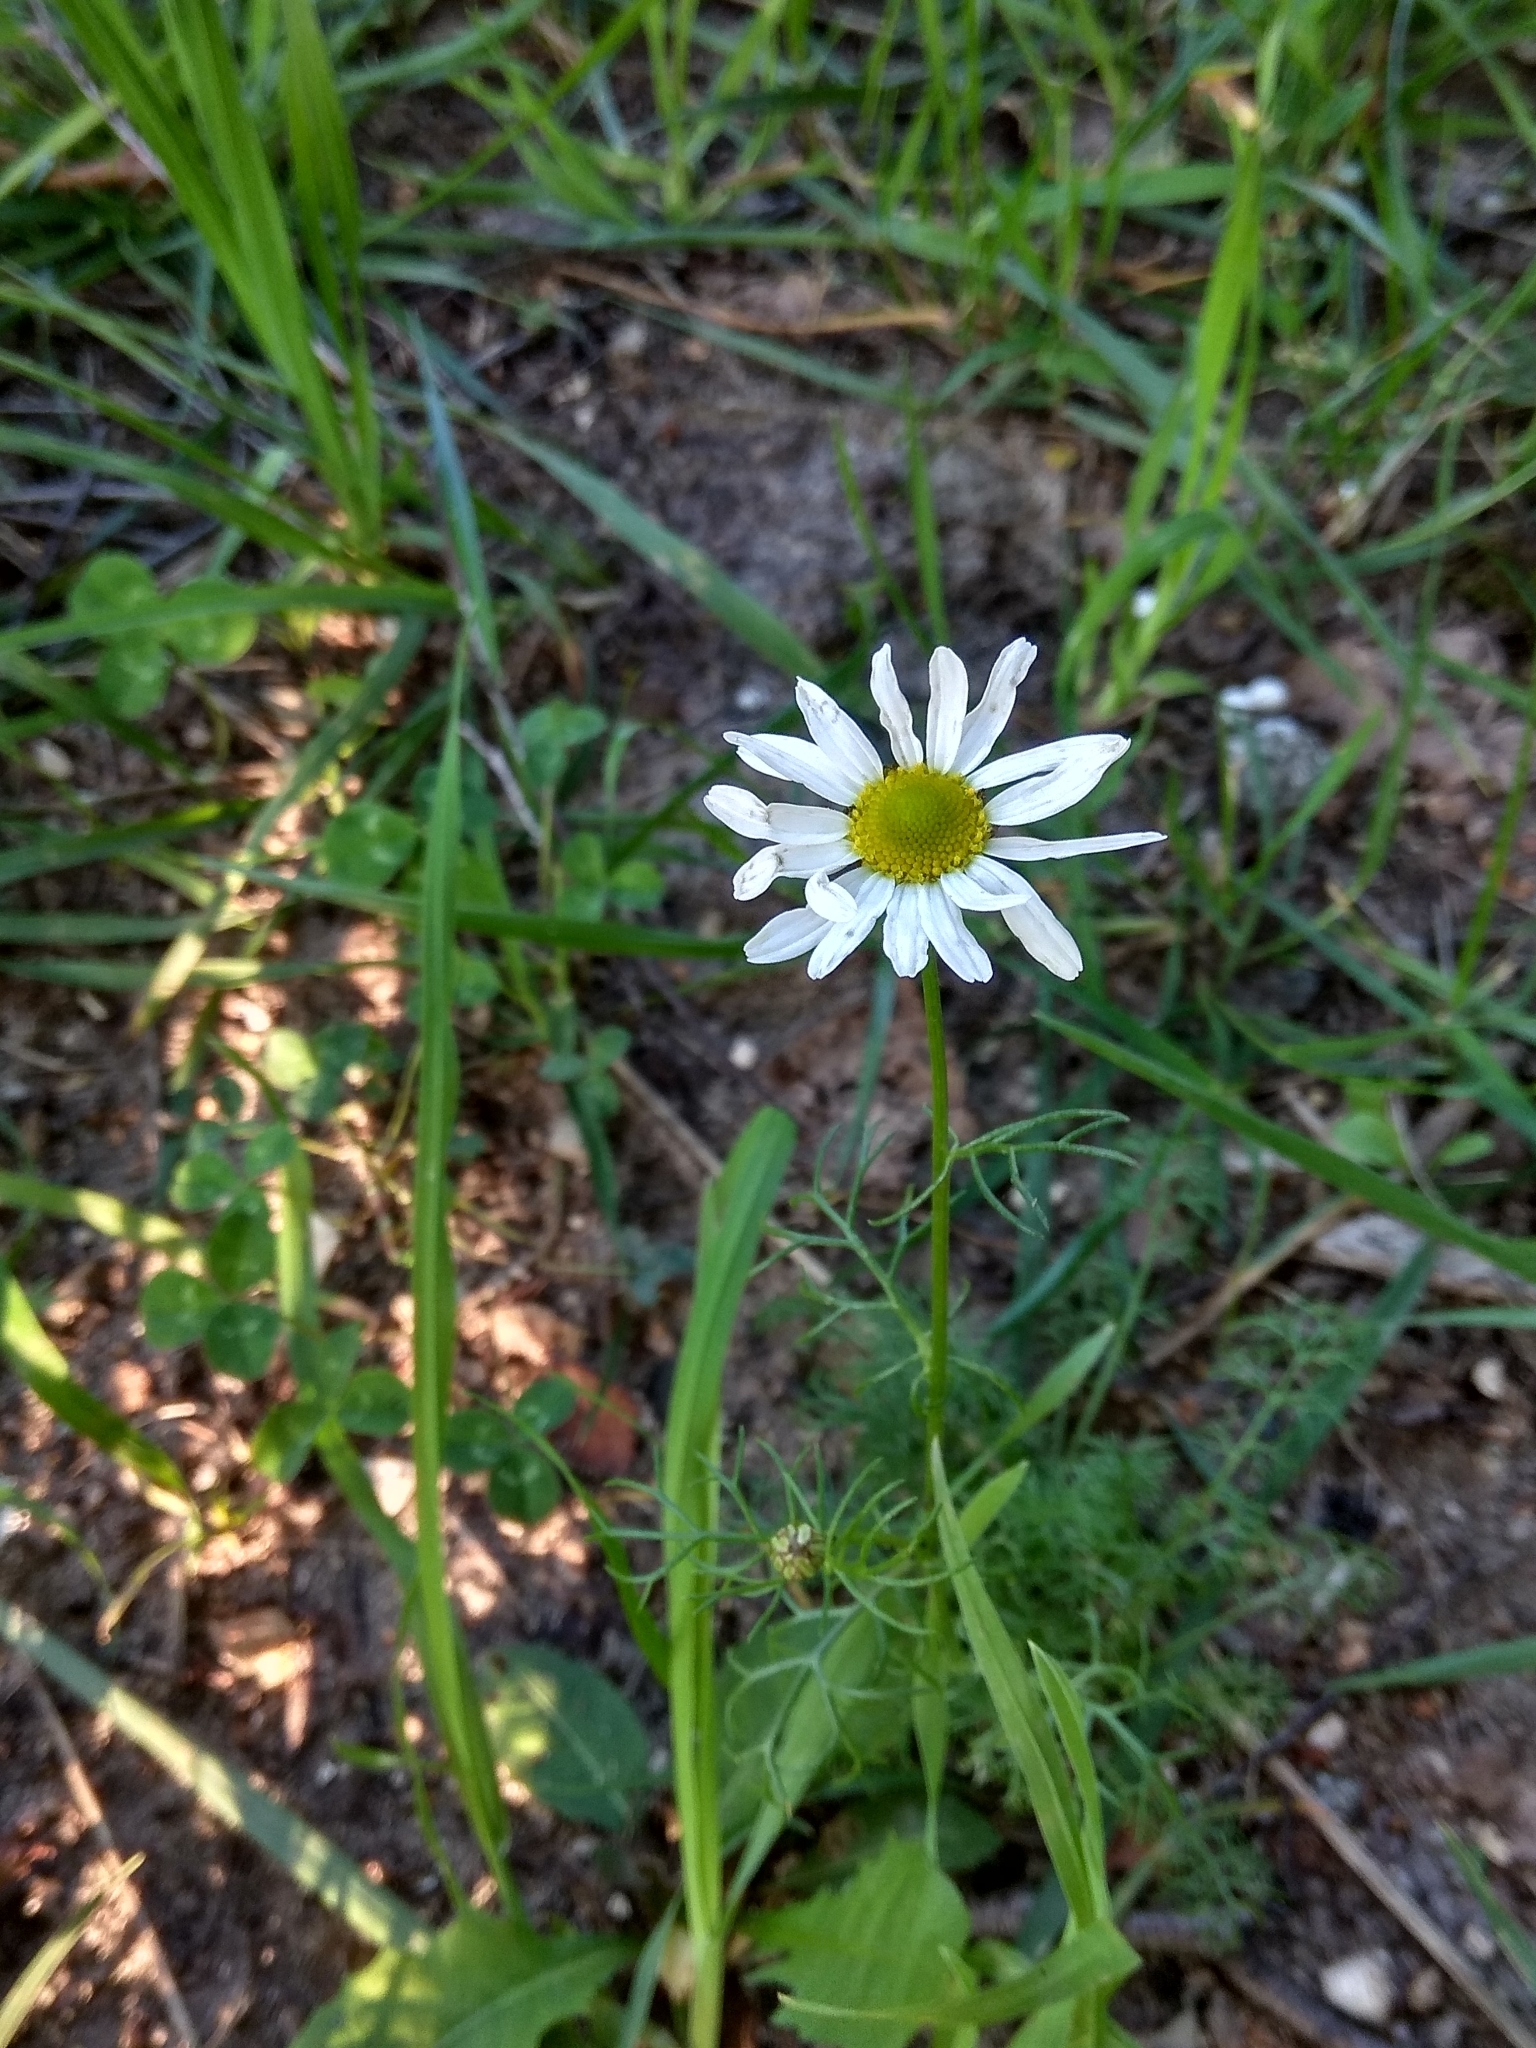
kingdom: Plantae
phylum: Tracheophyta
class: Magnoliopsida
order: Asterales
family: Asteraceae
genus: Tripleurospermum
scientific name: Tripleurospermum inodorum
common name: Scentless mayweed
